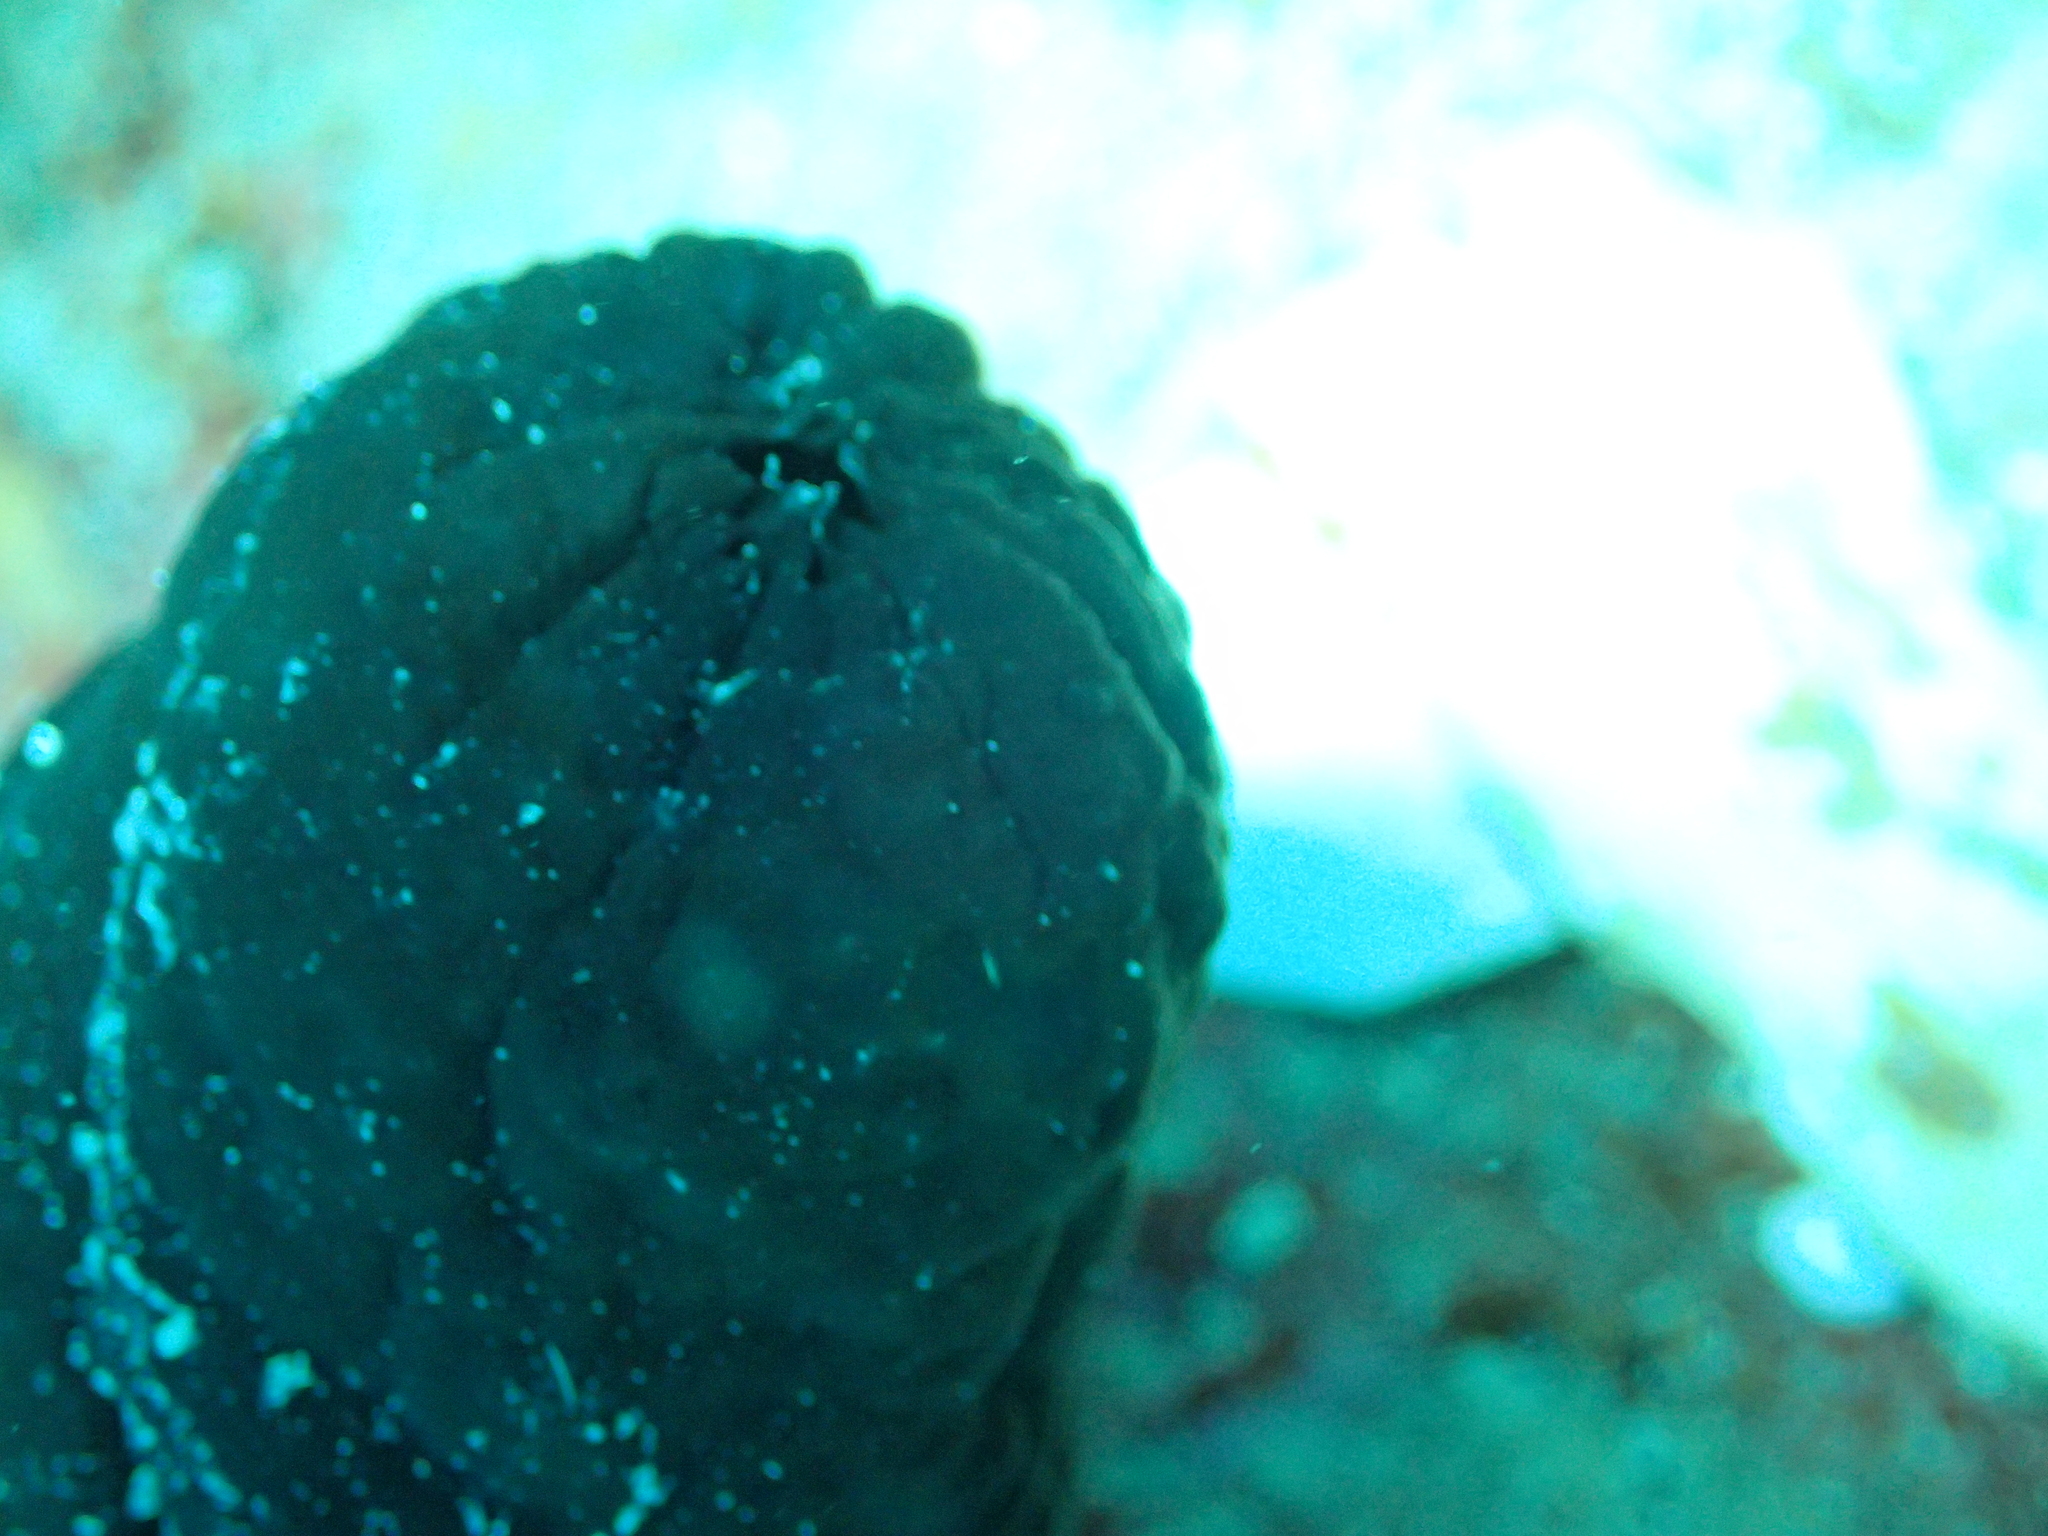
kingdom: Animalia
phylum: Chordata
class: Ascidiacea
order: Phlebobranchia
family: Ascidiidae
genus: Phallusia
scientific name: Phallusia fumigata
